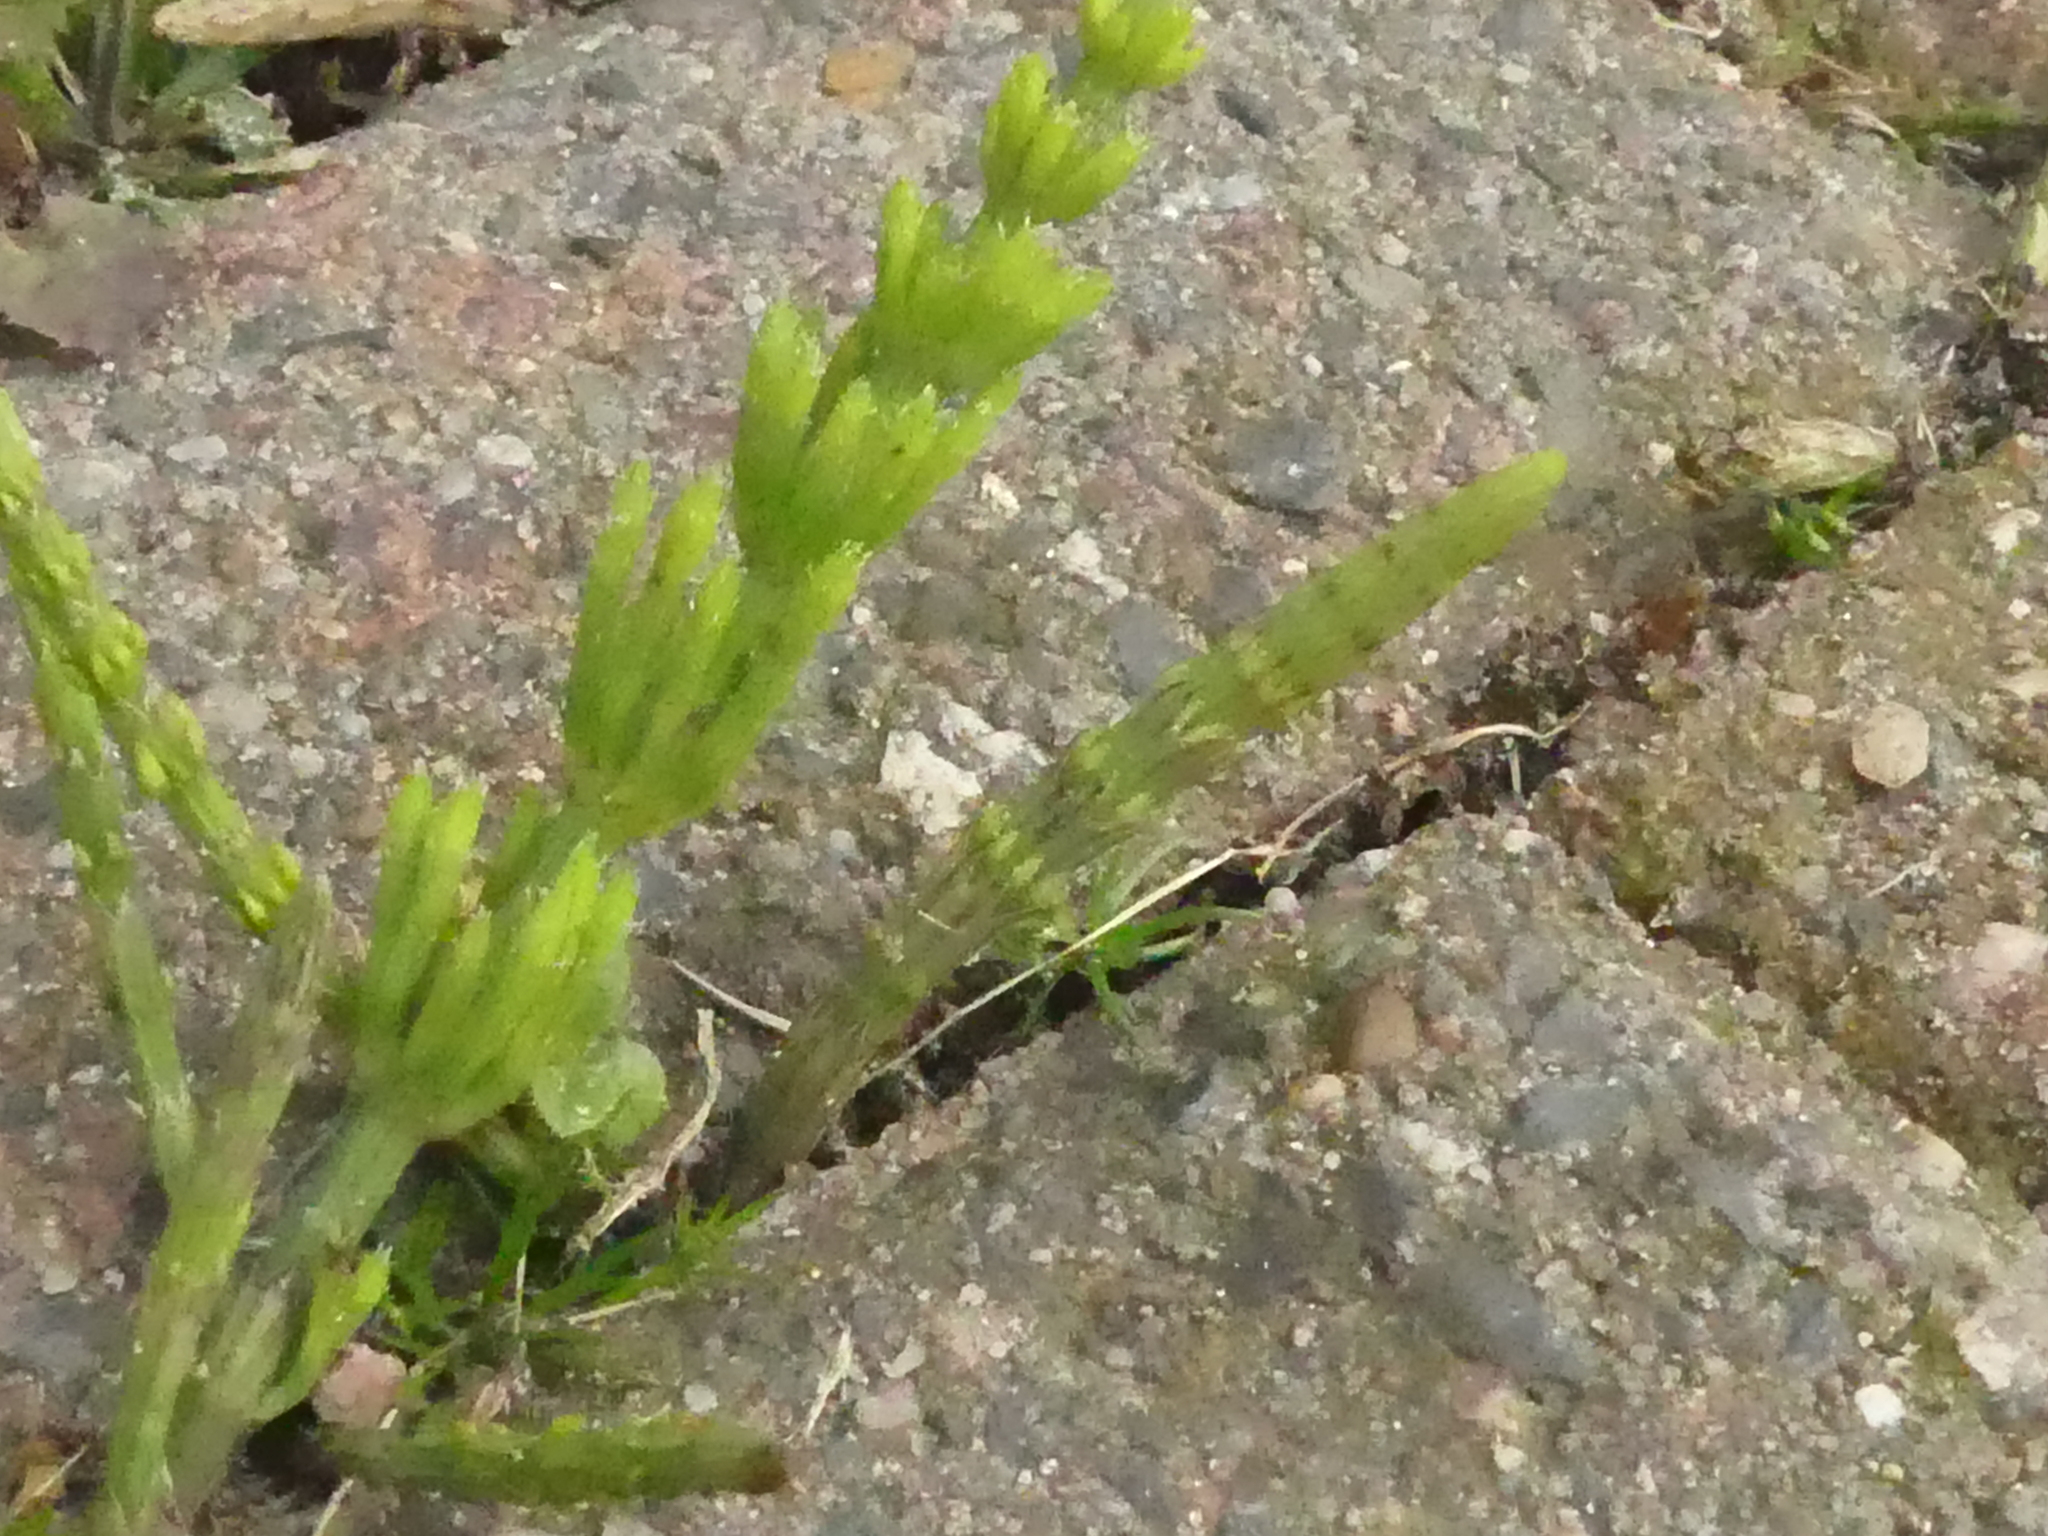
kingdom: Plantae
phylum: Tracheophyta
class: Polypodiopsida
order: Equisetales
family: Equisetaceae
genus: Equisetum
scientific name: Equisetum arvense
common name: Field horsetail
